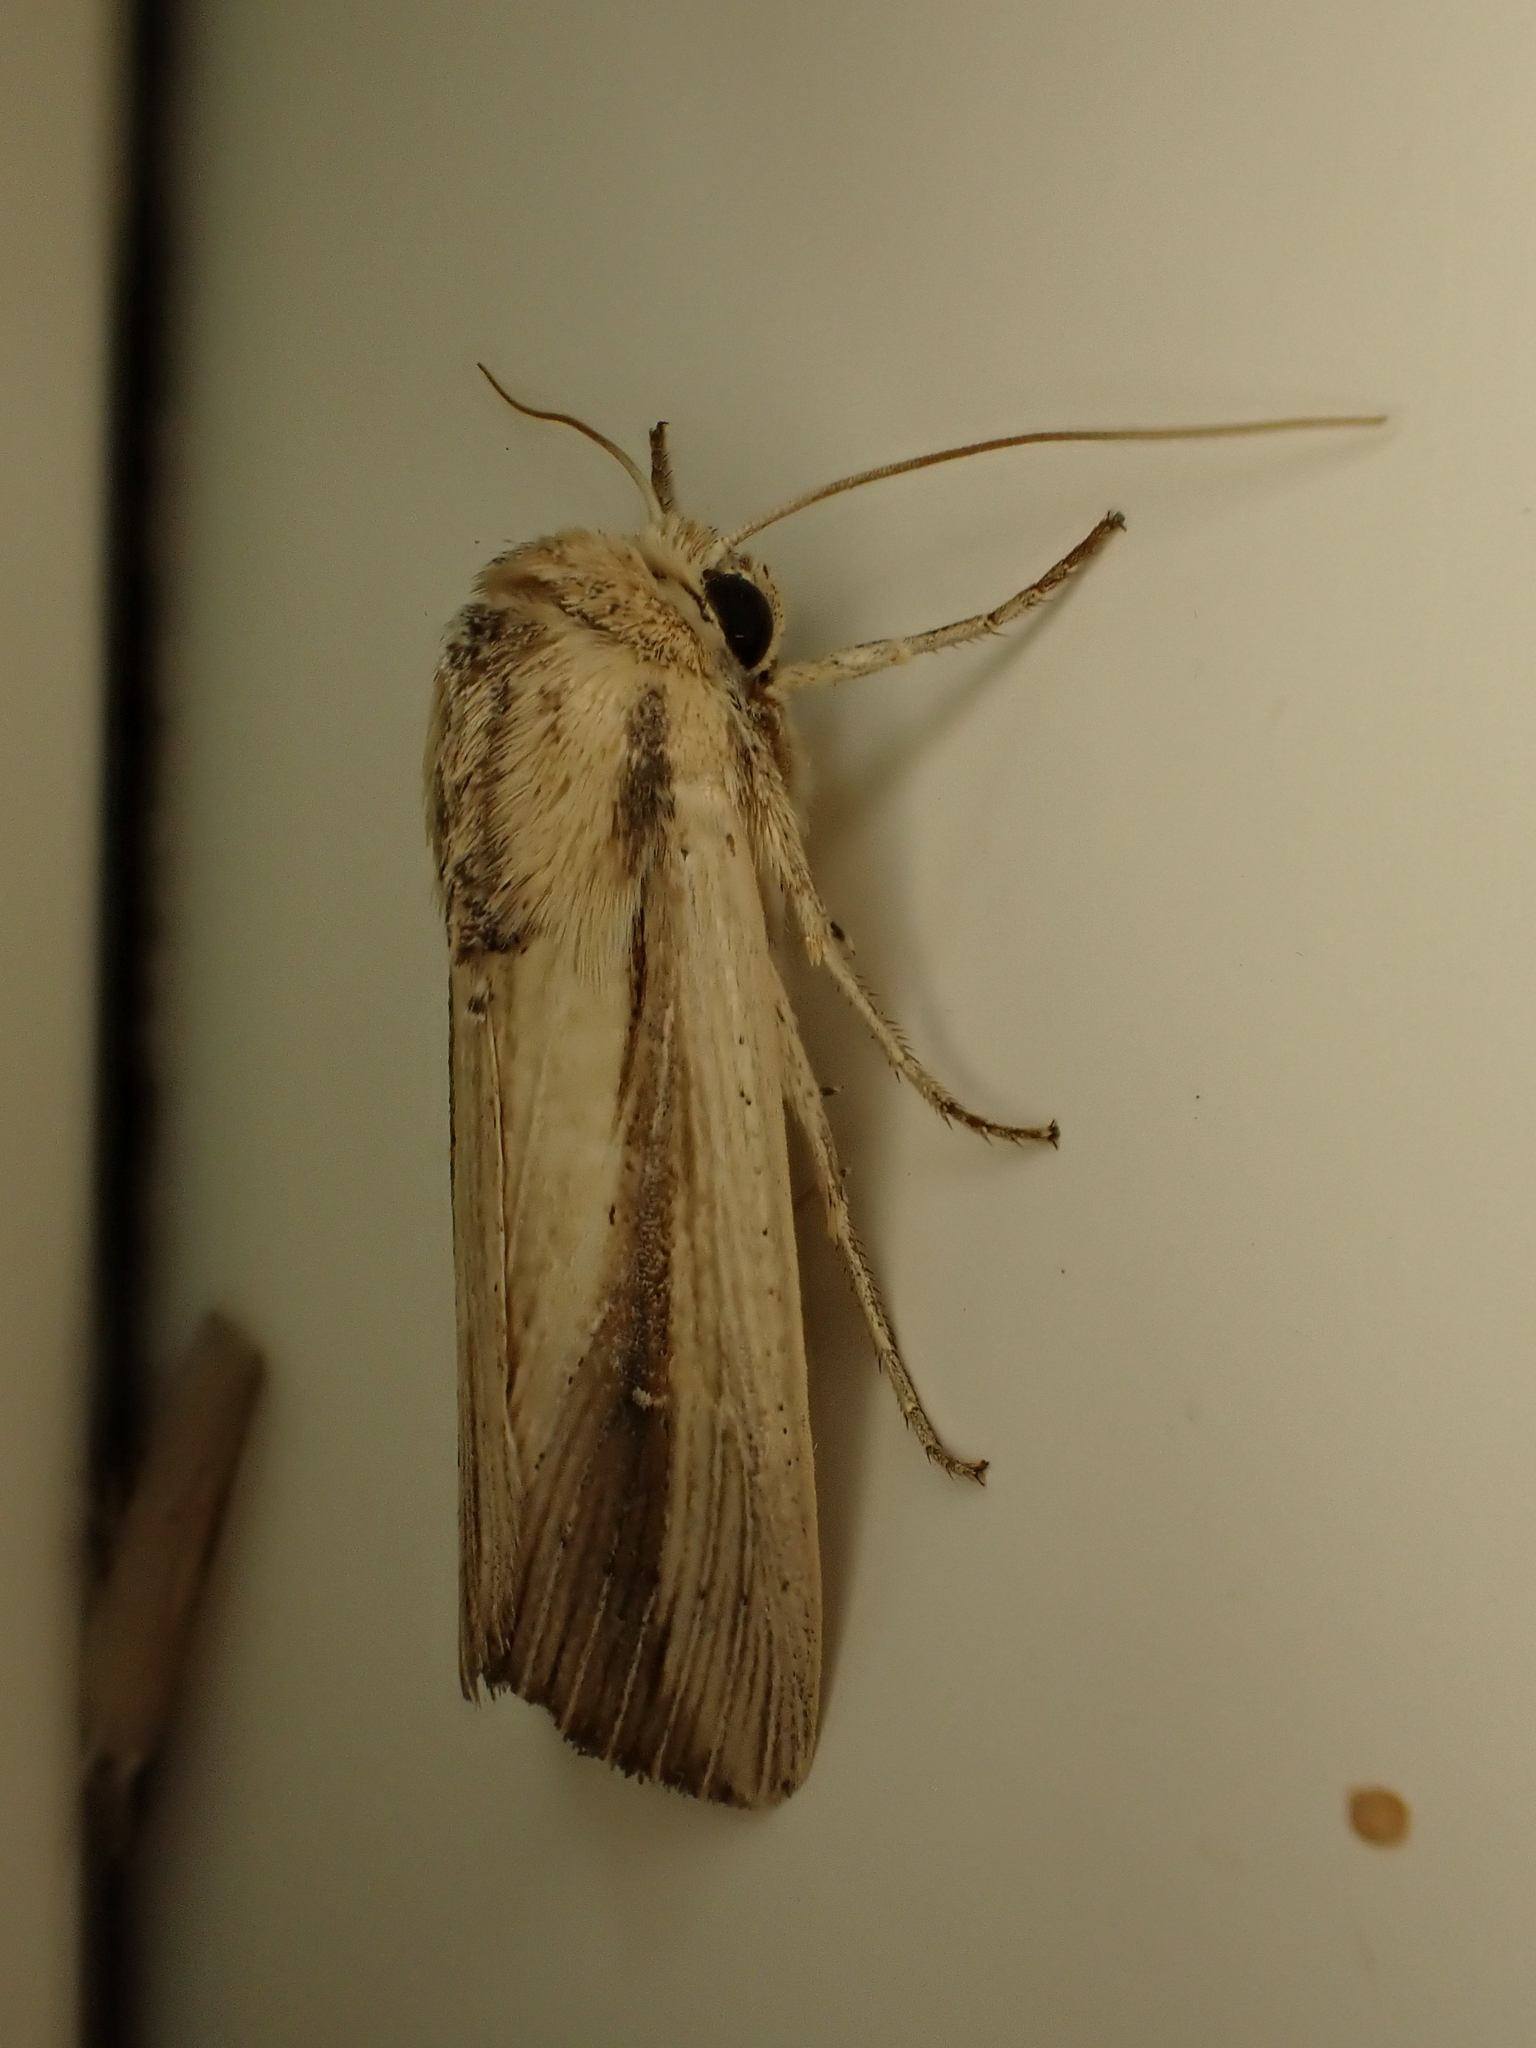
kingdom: Animalia
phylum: Arthropoda
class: Insecta
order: Lepidoptera
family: Noctuidae
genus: Leucania
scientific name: Leucania stenographa
